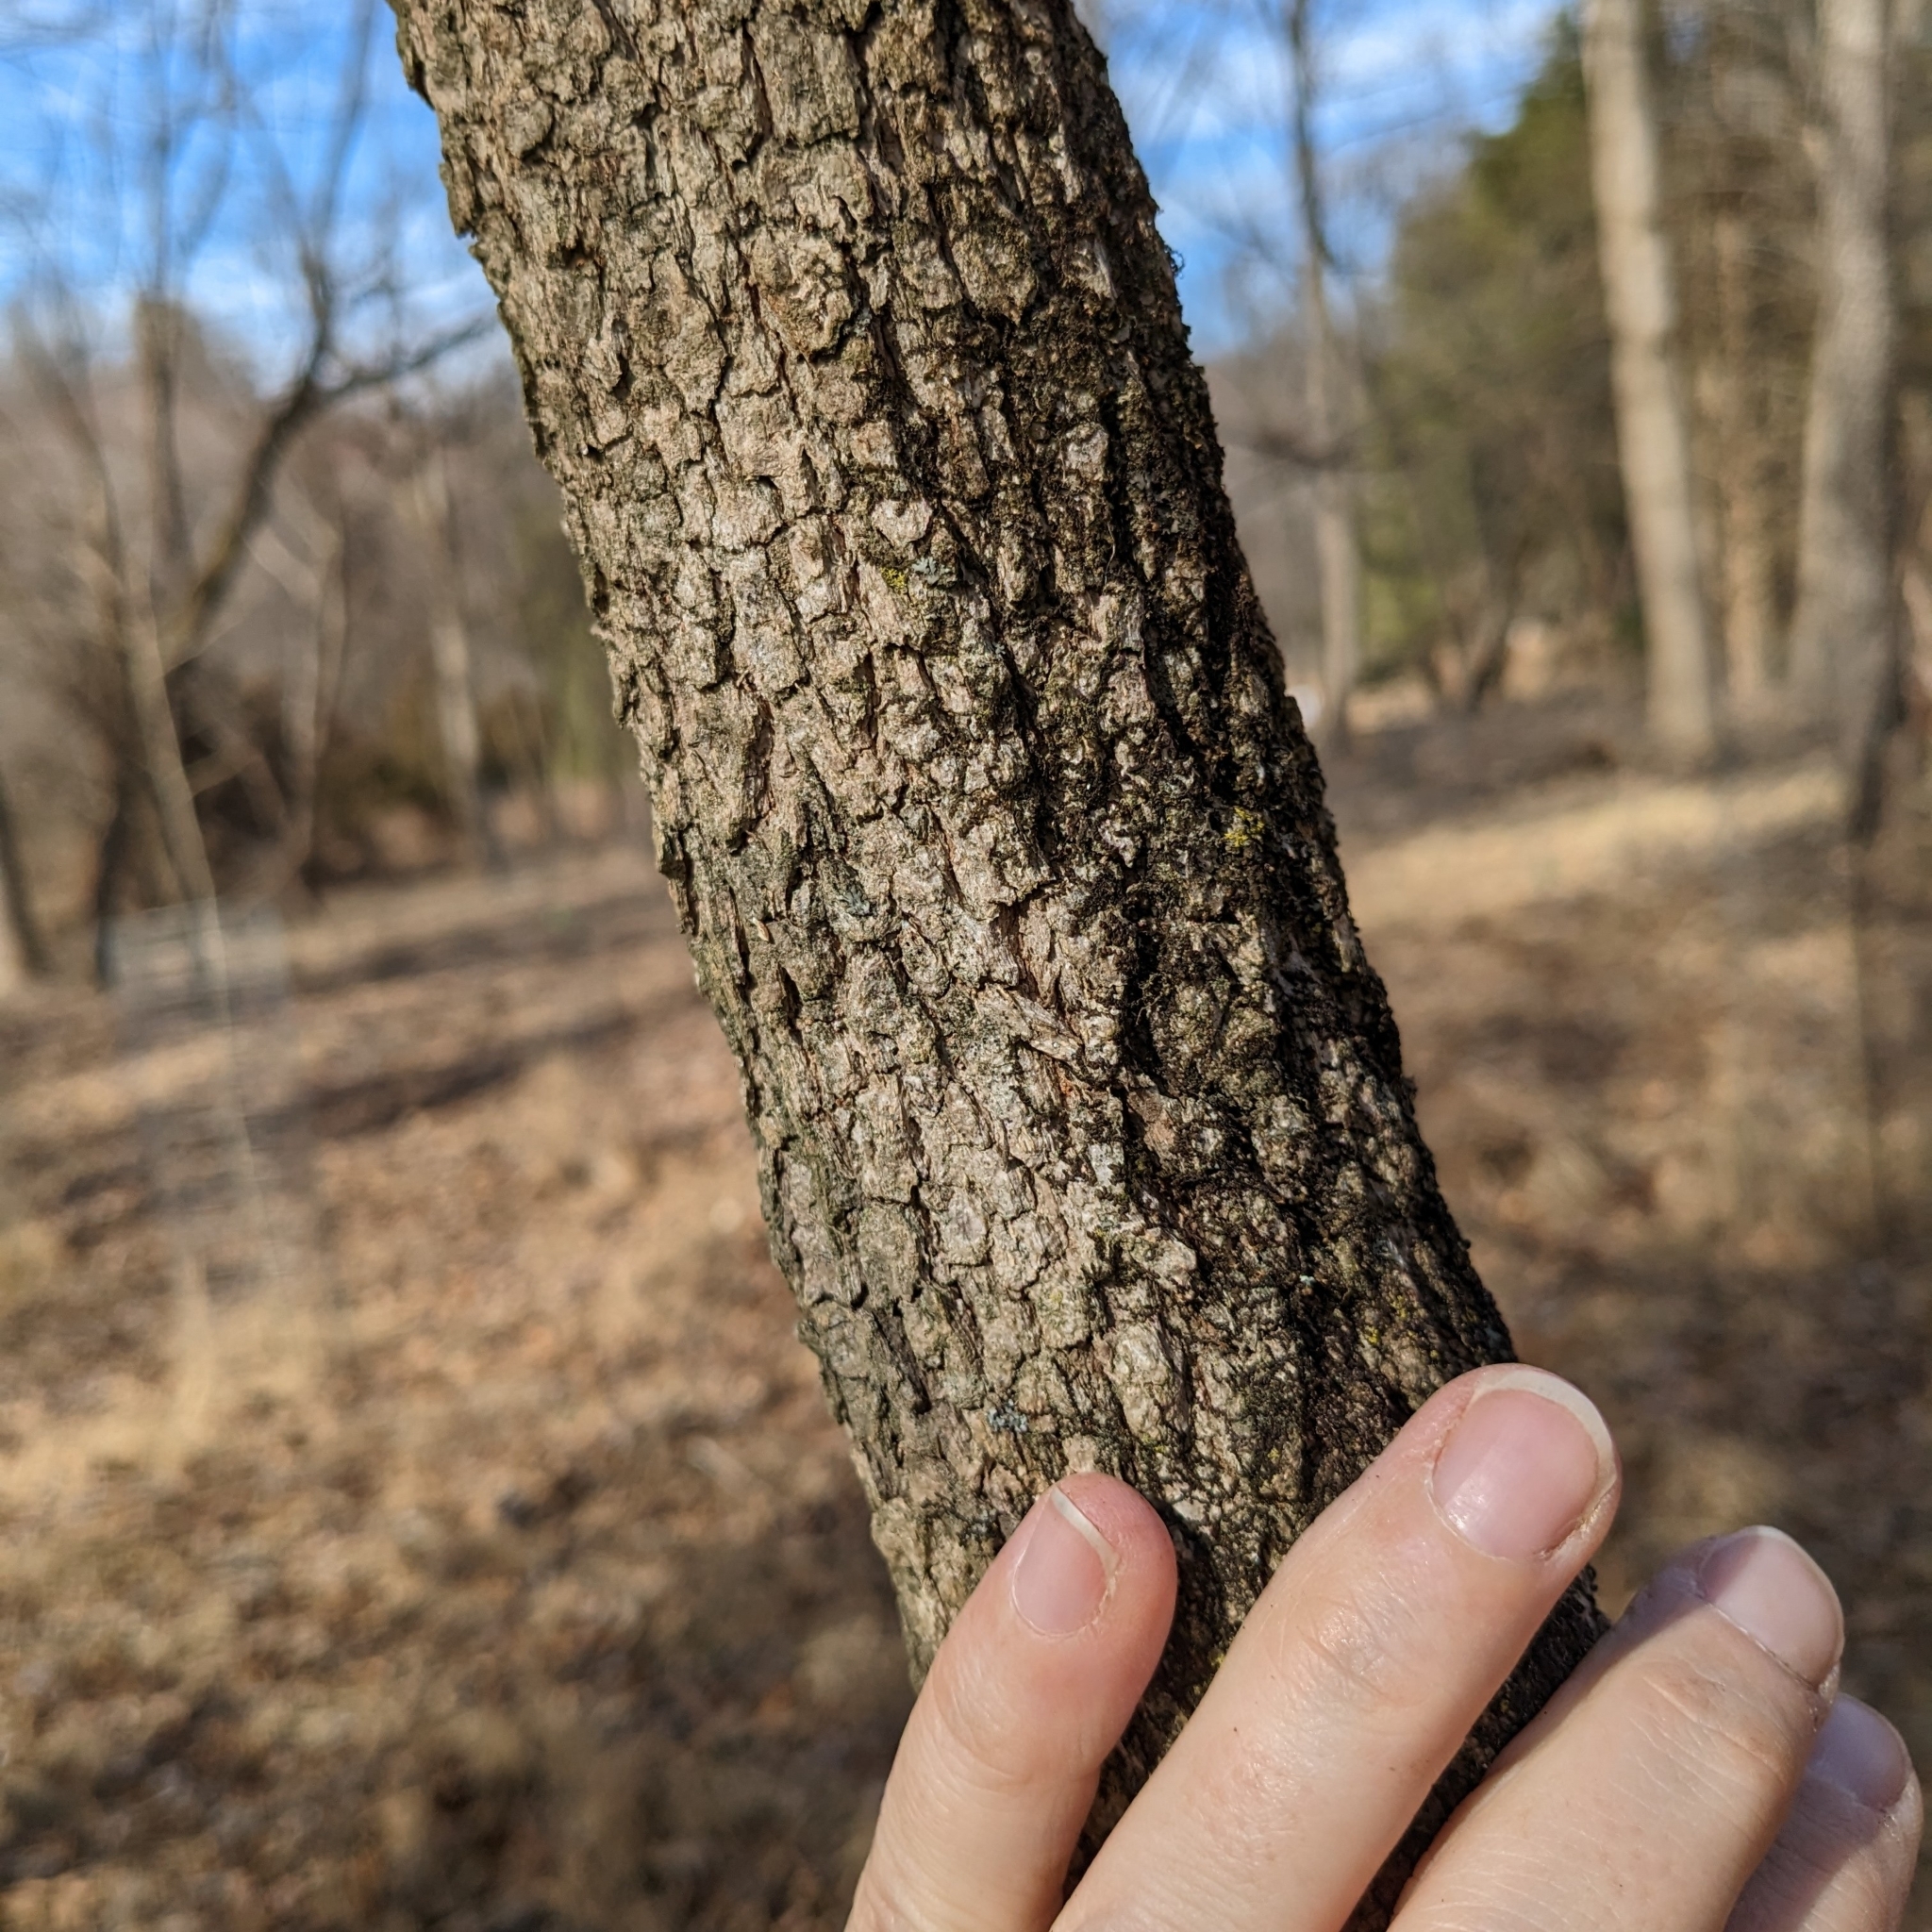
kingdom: Plantae
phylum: Tracheophyta
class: Magnoliopsida
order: Dipsacales
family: Viburnaceae
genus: Viburnum
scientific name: Viburnum prunifolium
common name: Black haw
